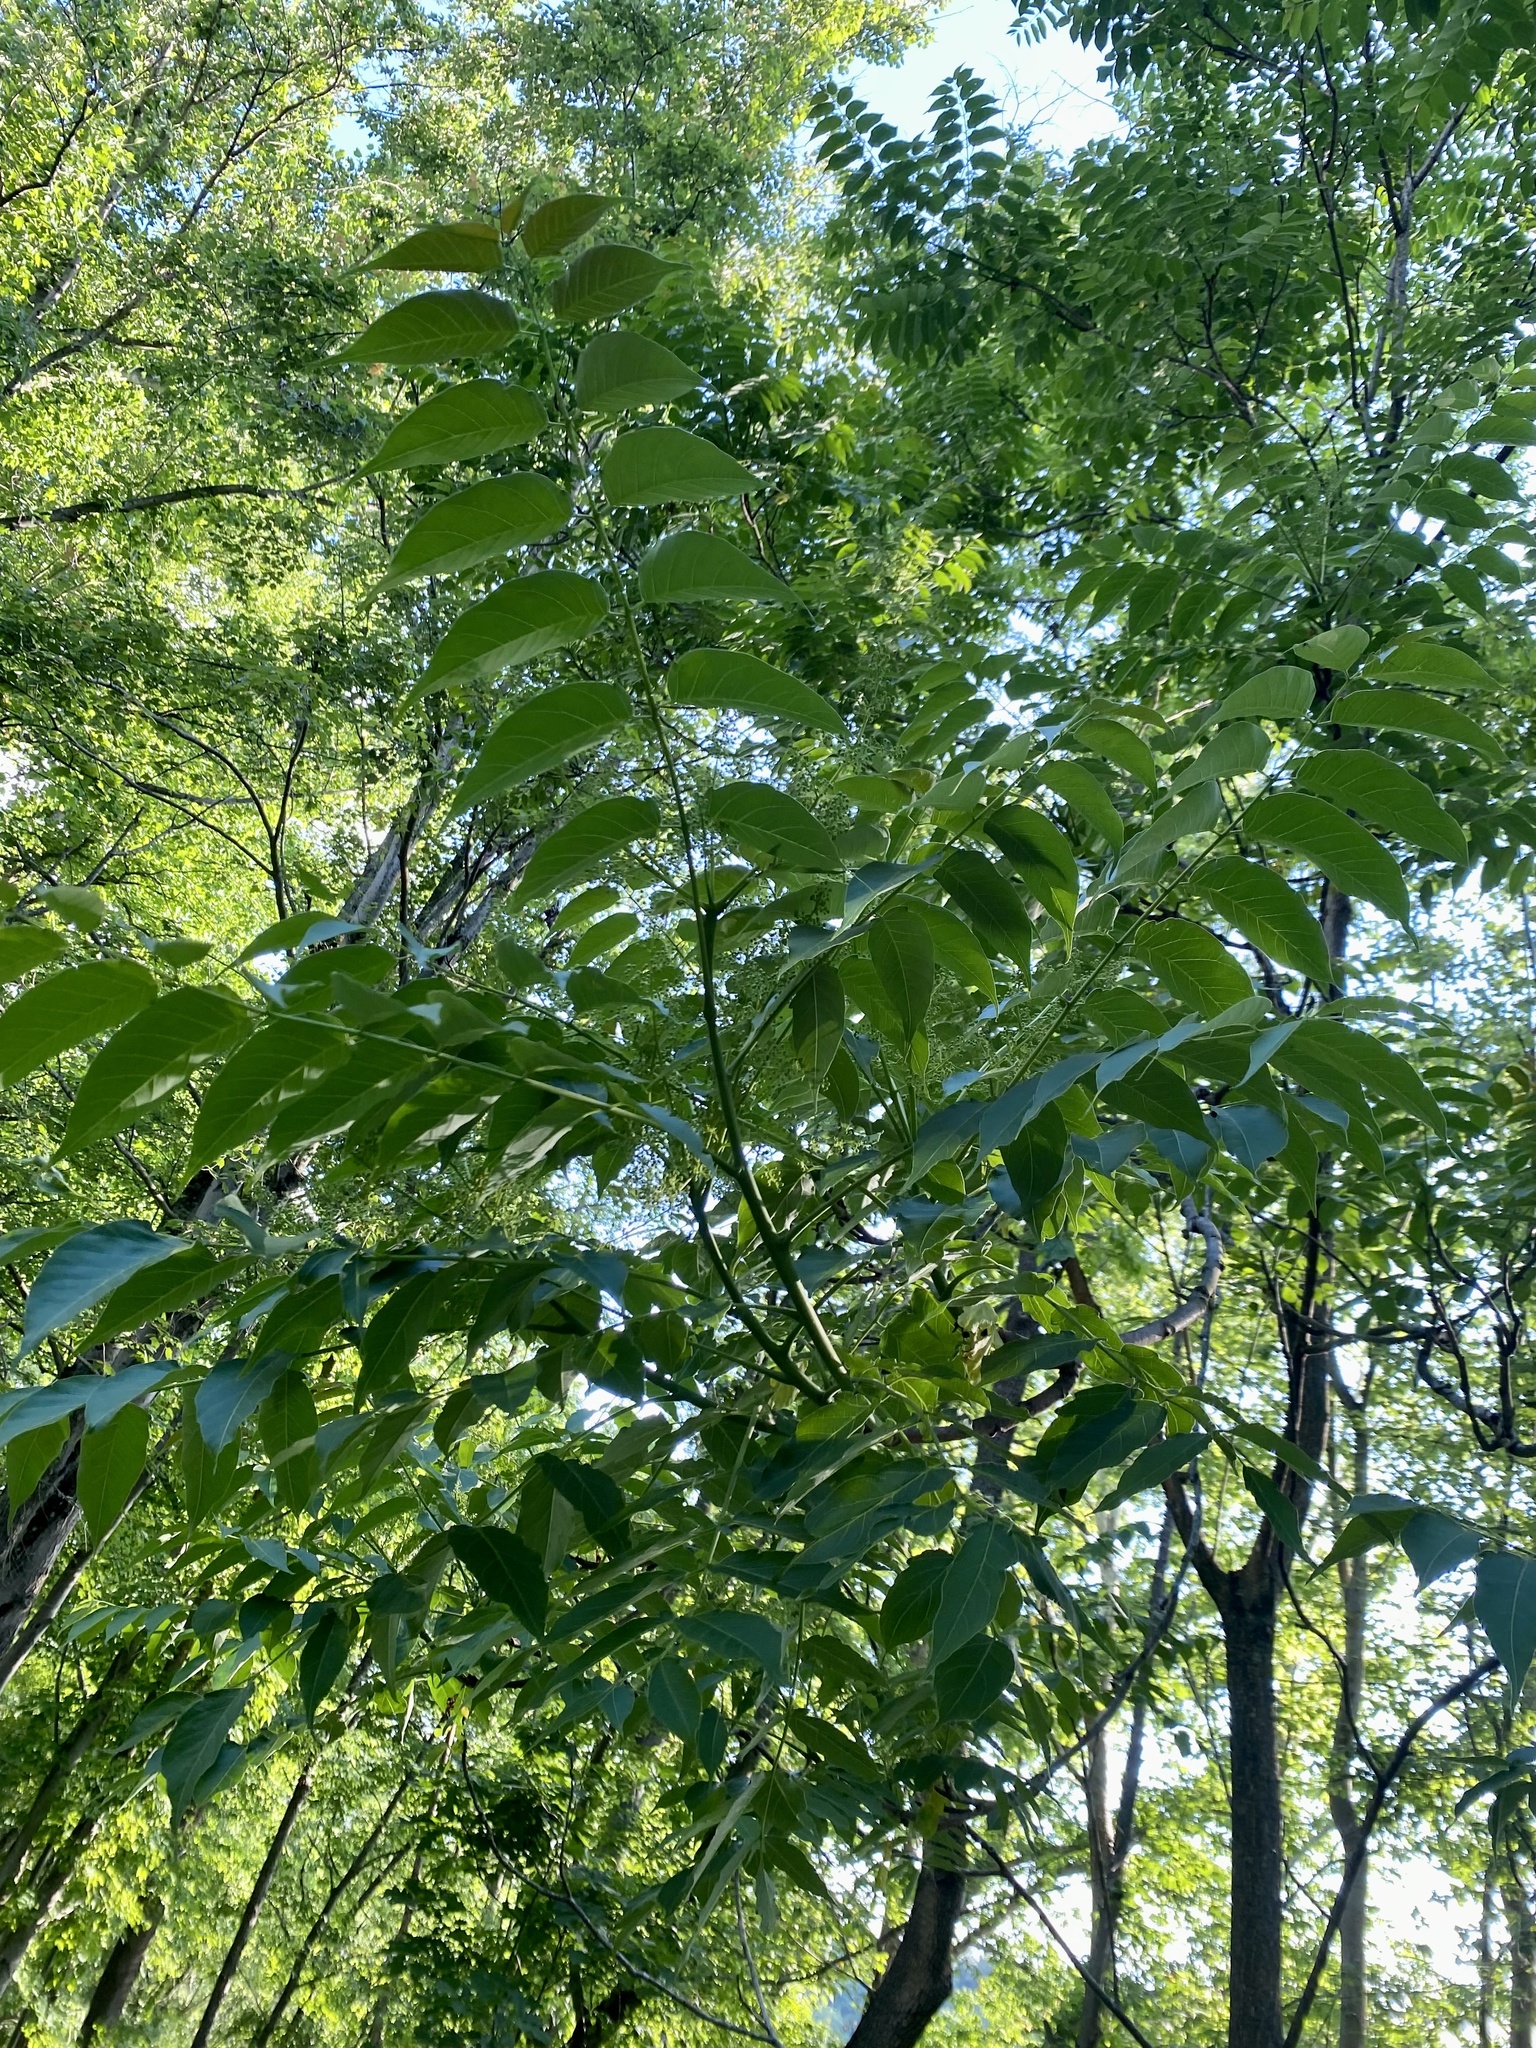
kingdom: Plantae
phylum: Tracheophyta
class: Magnoliopsida
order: Sapindales
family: Simaroubaceae
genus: Ailanthus
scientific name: Ailanthus altissima
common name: Tree-of-heaven
